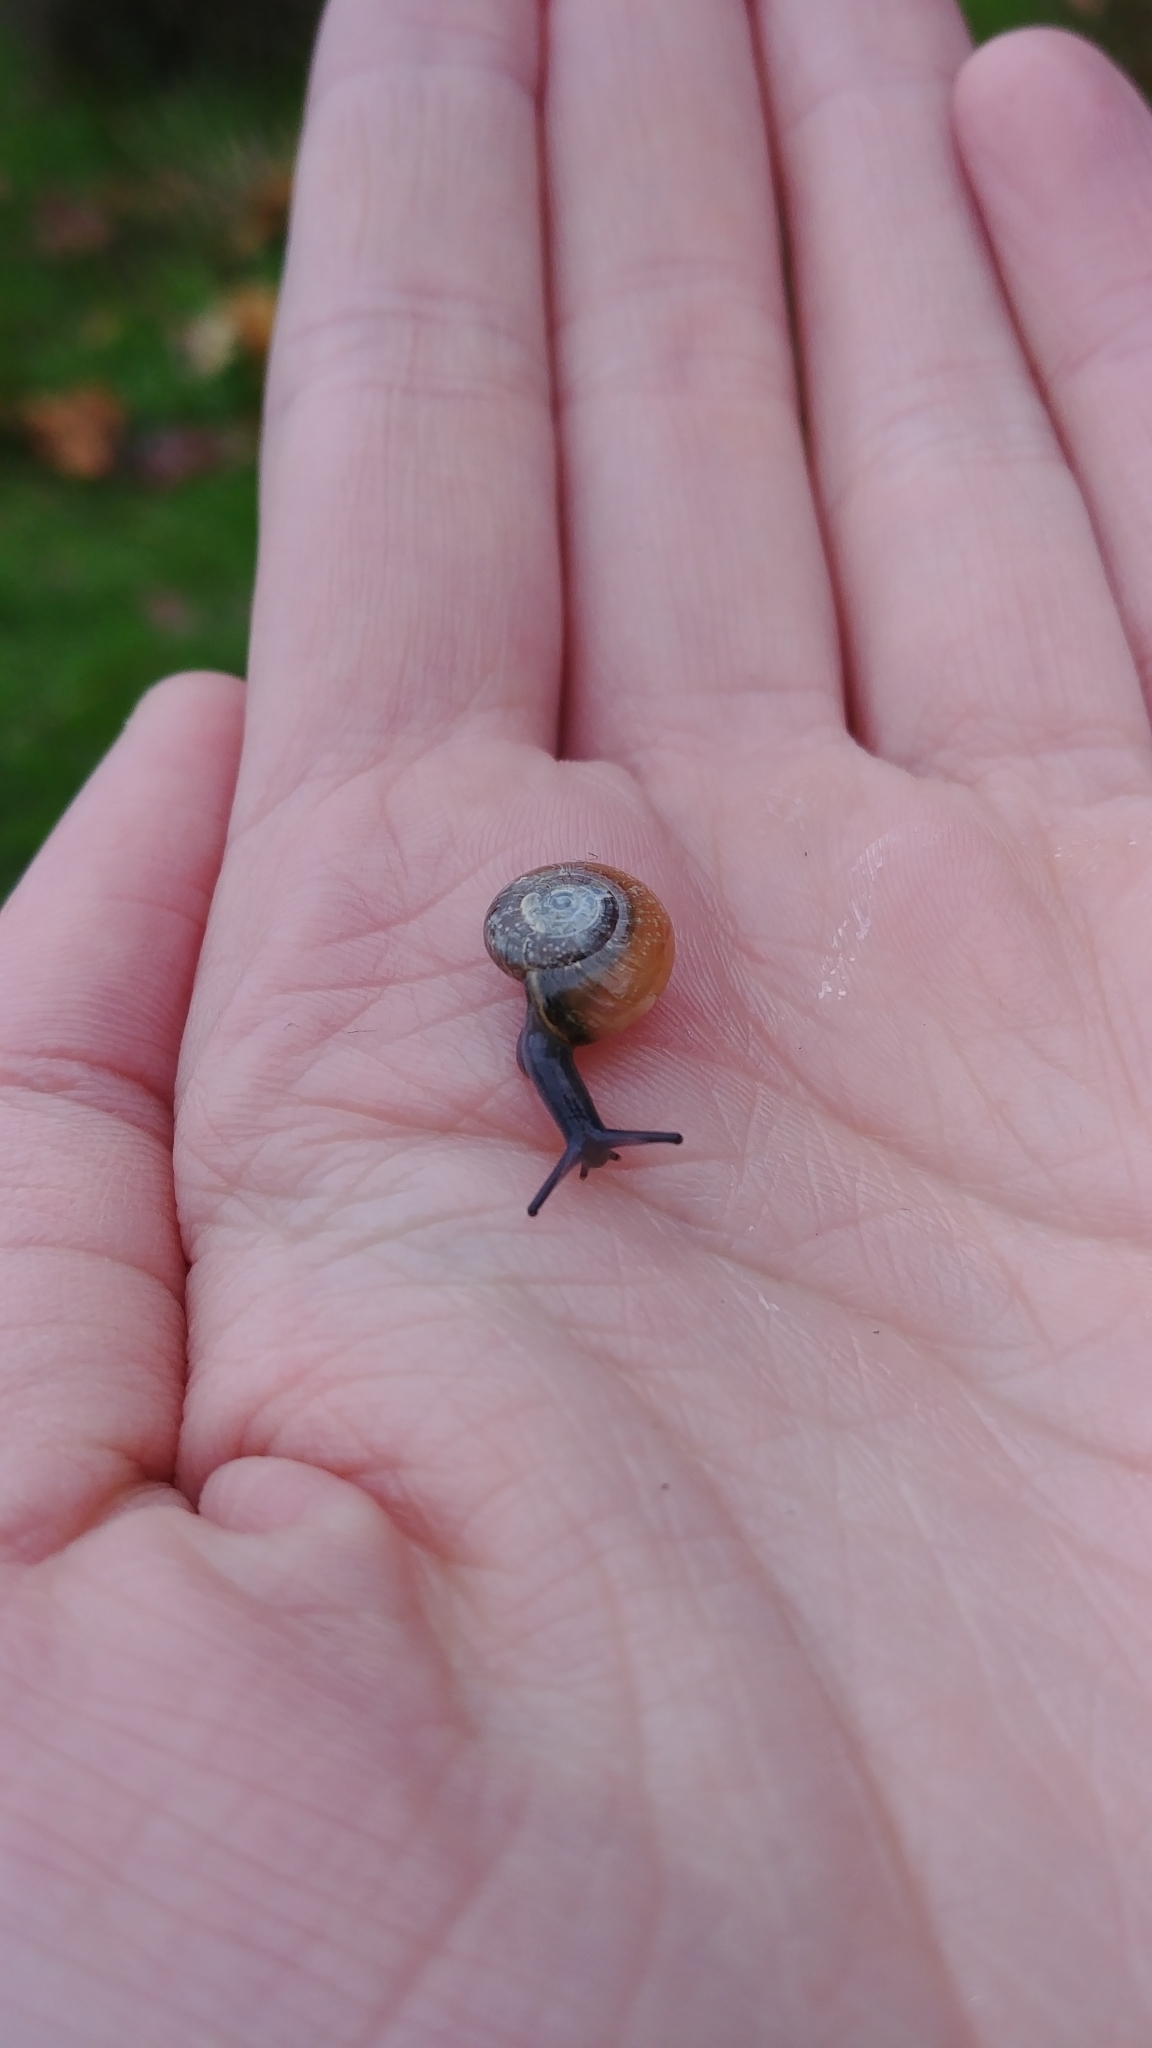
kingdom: Animalia
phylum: Mollusca
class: Gastropoda
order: Stylommatophora
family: Oxychilidae
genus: Oxychilus
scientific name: Oxychilus draparnaudi
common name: Draparnaud's glass snail
